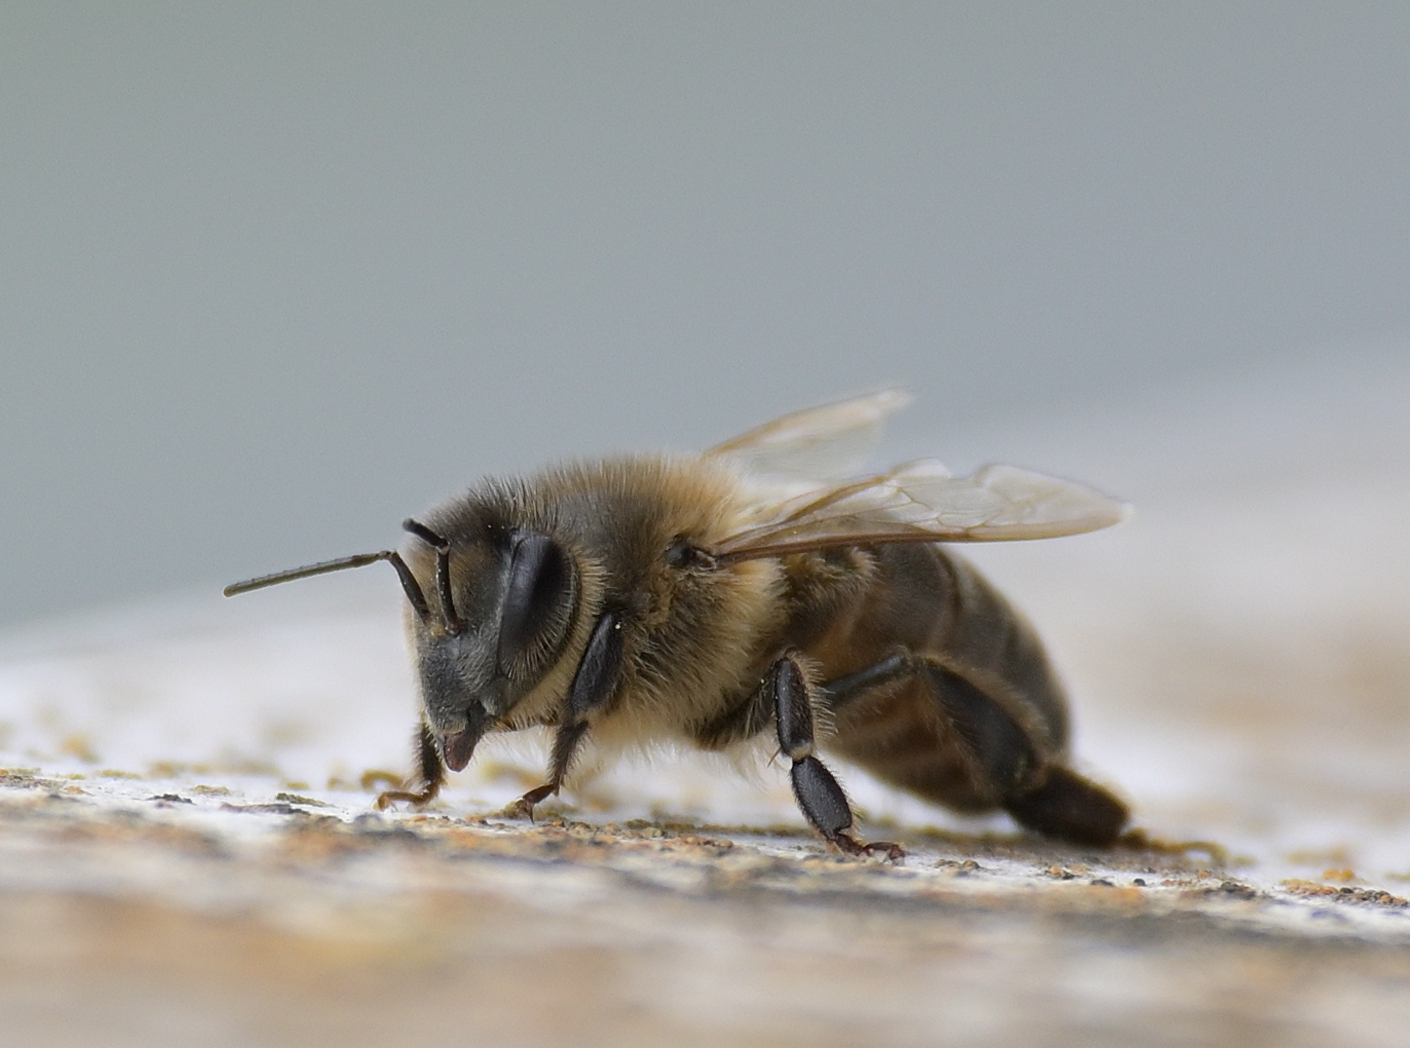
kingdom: Animalia
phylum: Arthropoda
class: Insecta
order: Hymenoptera
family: Apidae
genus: Apis
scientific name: Apis mellifera
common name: Honey bee
